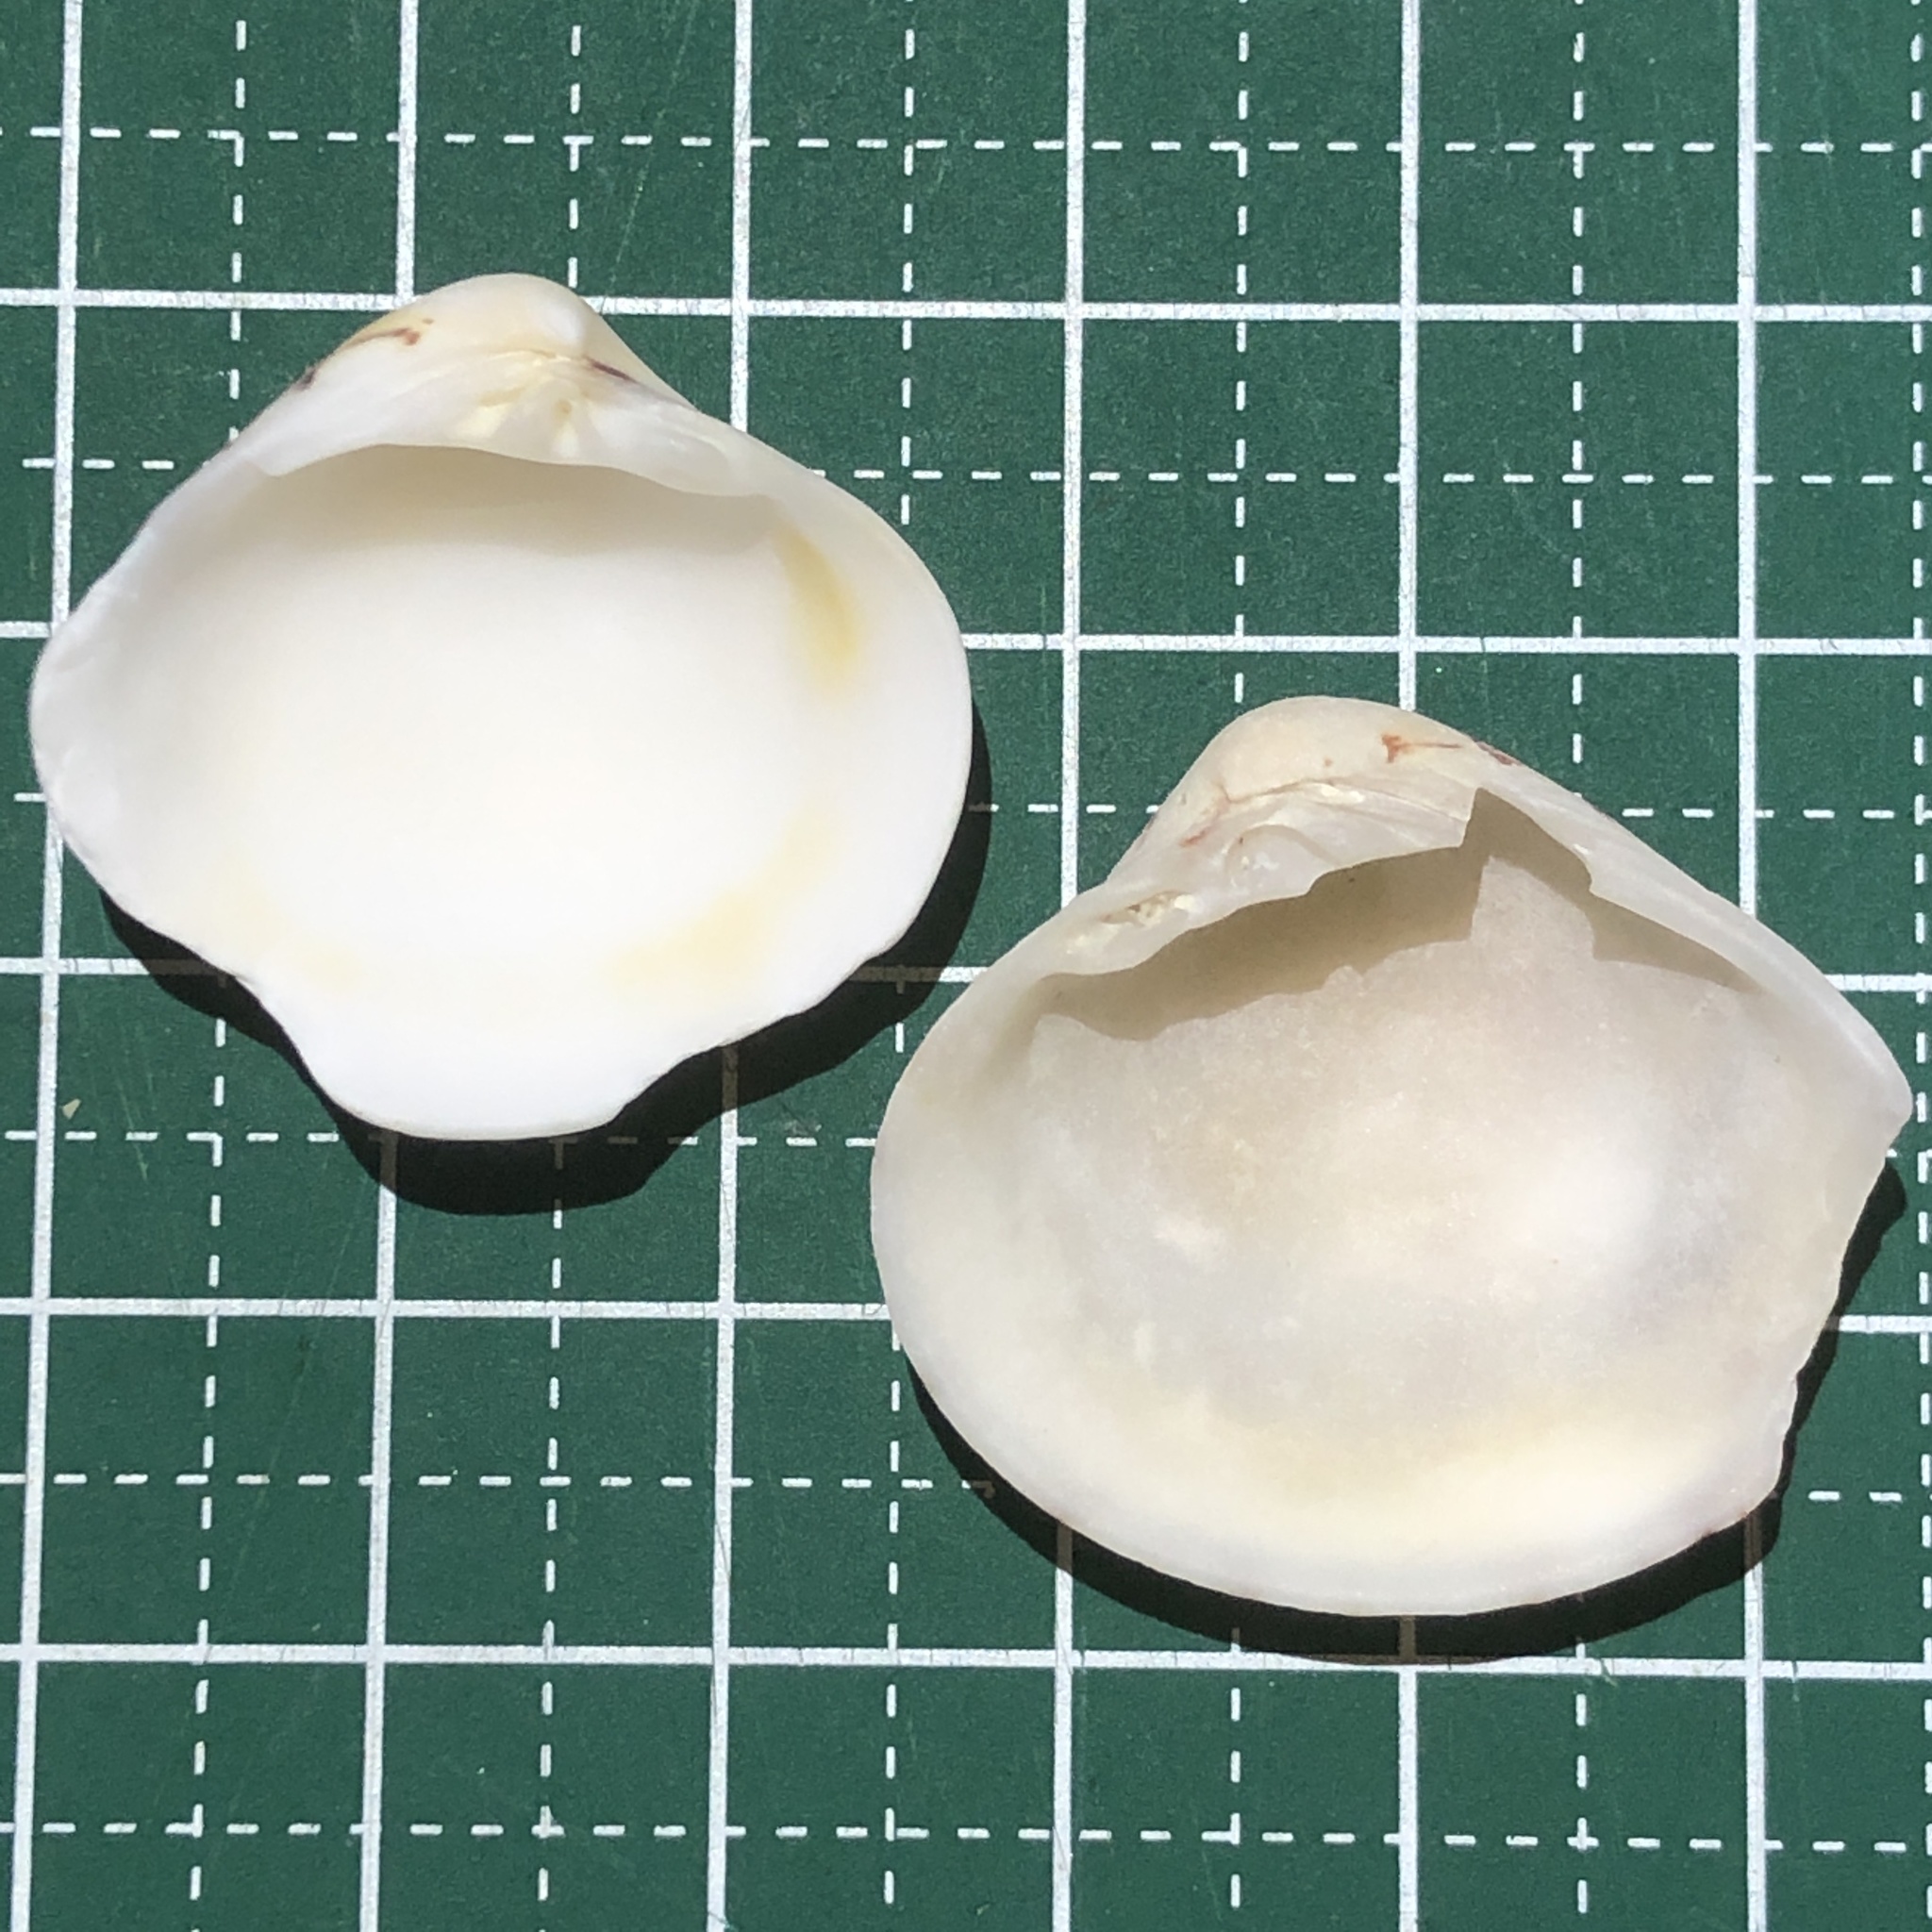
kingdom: Animalia
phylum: Mollusca
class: Bivalvia
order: Venerida
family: Veneridae
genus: Lioconcha
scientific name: Lioconcha fastigiata
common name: Clam
